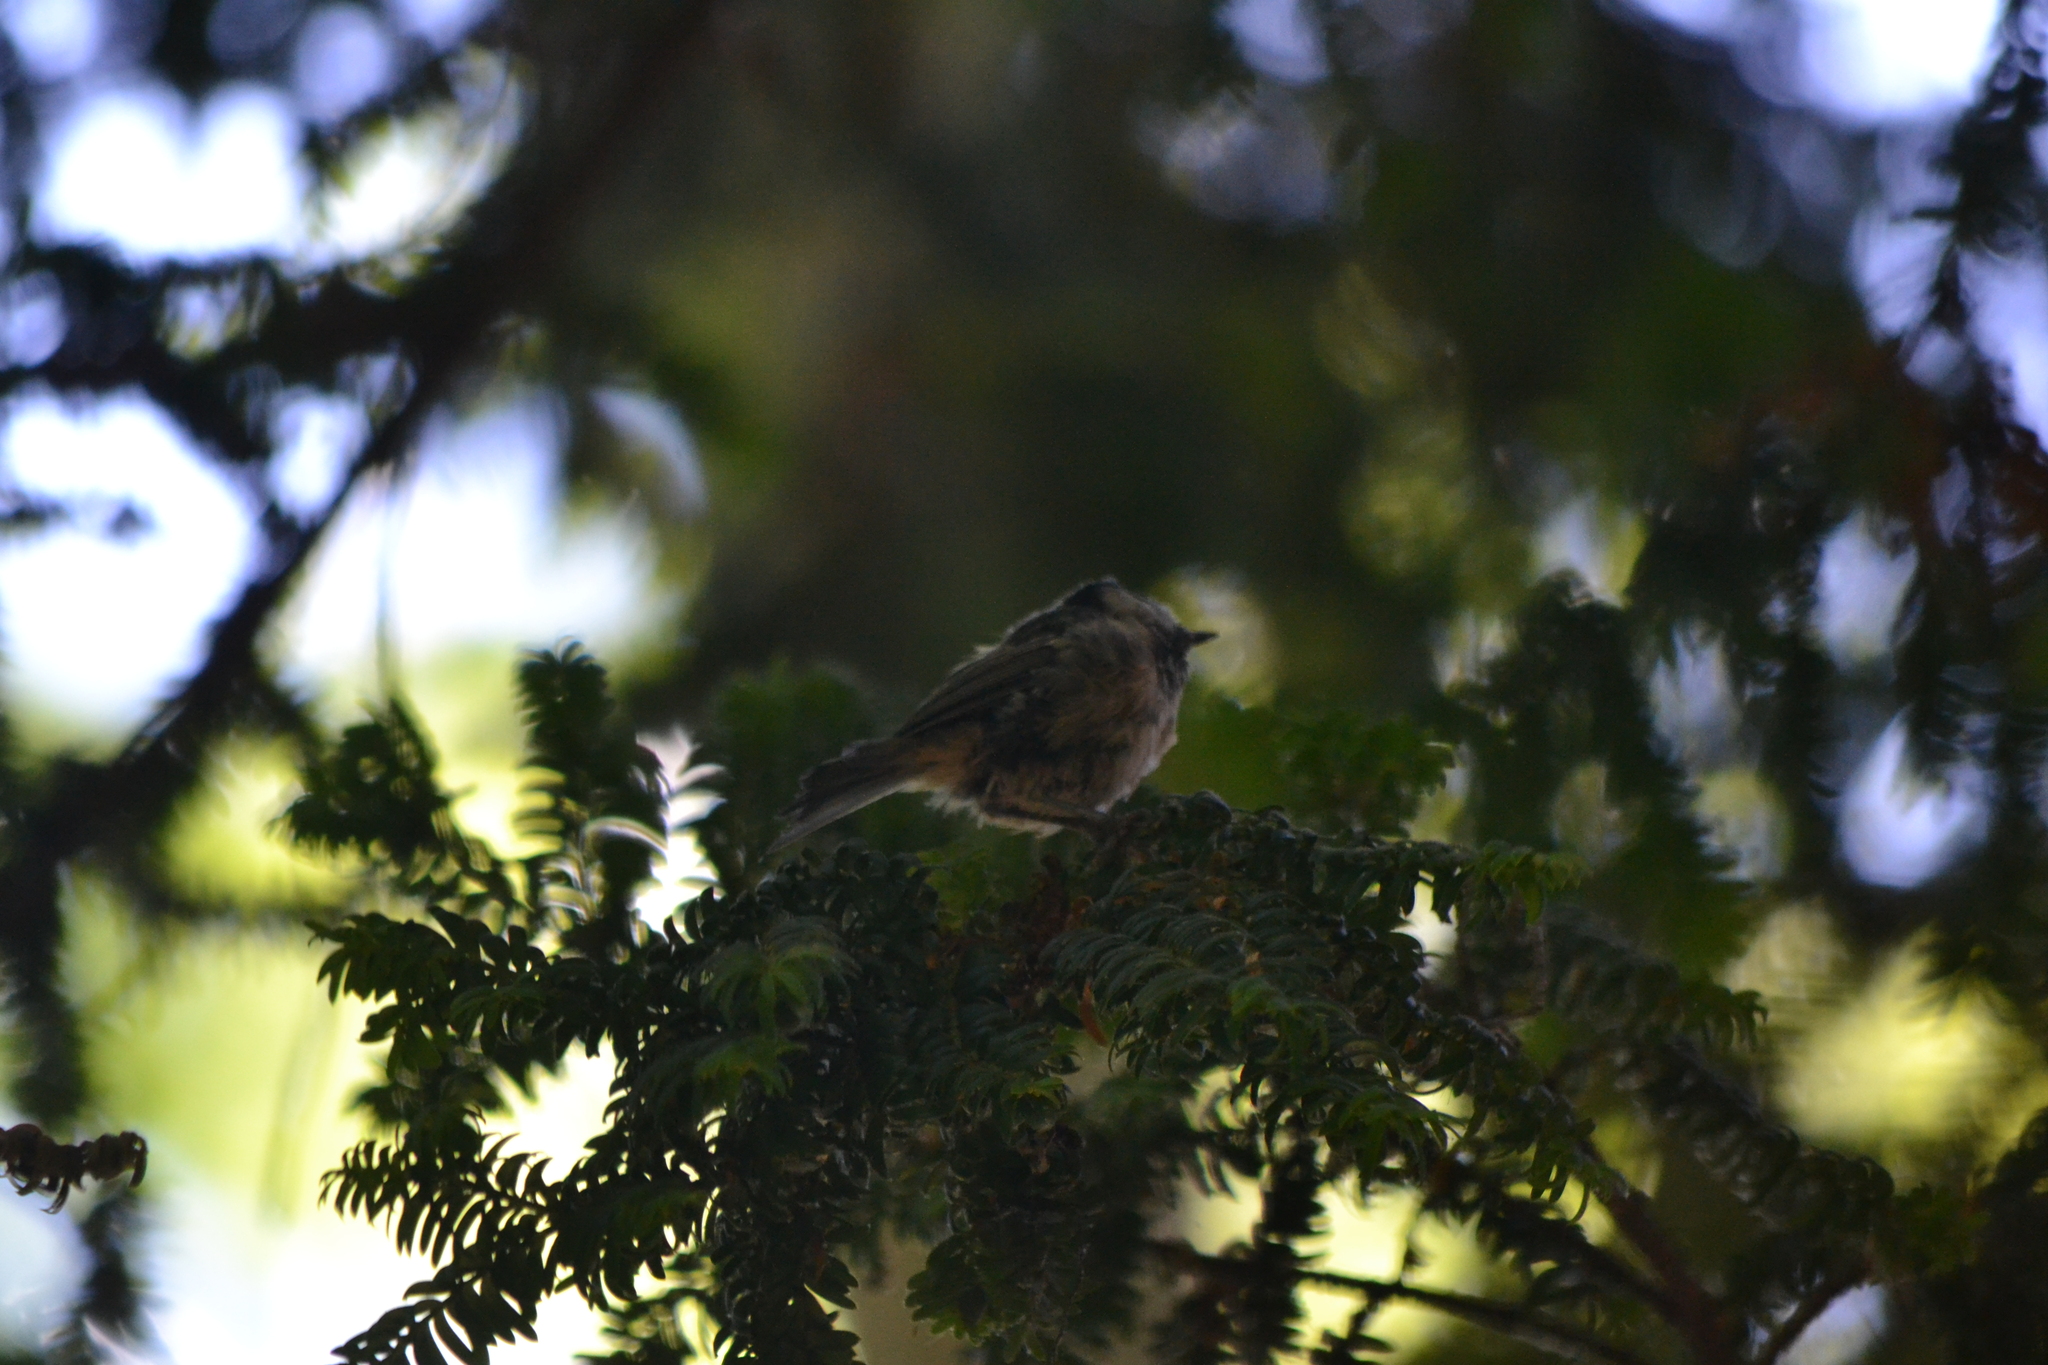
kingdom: Animalia
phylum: Chordata
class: Aves
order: Passeriformes
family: Paridae
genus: Periparus
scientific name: Periparus ater
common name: Coal tit
